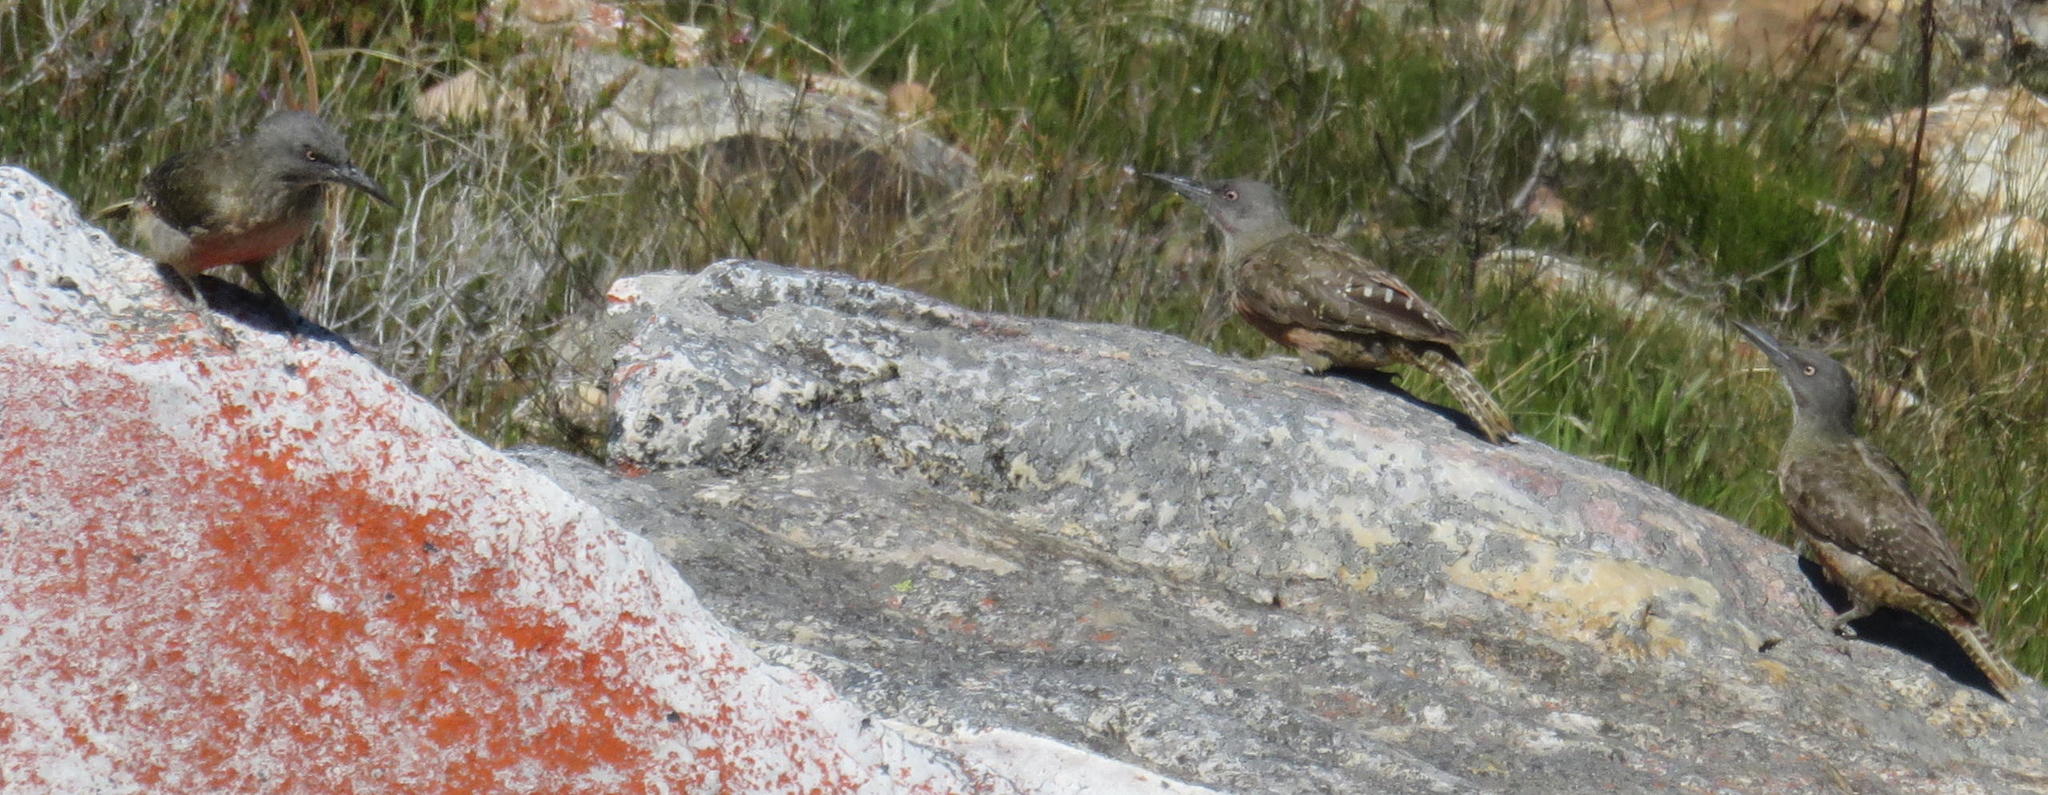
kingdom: Animalia
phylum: Chordata
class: Aves
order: Piciformes
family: Picidae
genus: Geocolaptes
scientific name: Geocolaptes olivaceus
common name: Ground woodpecker
